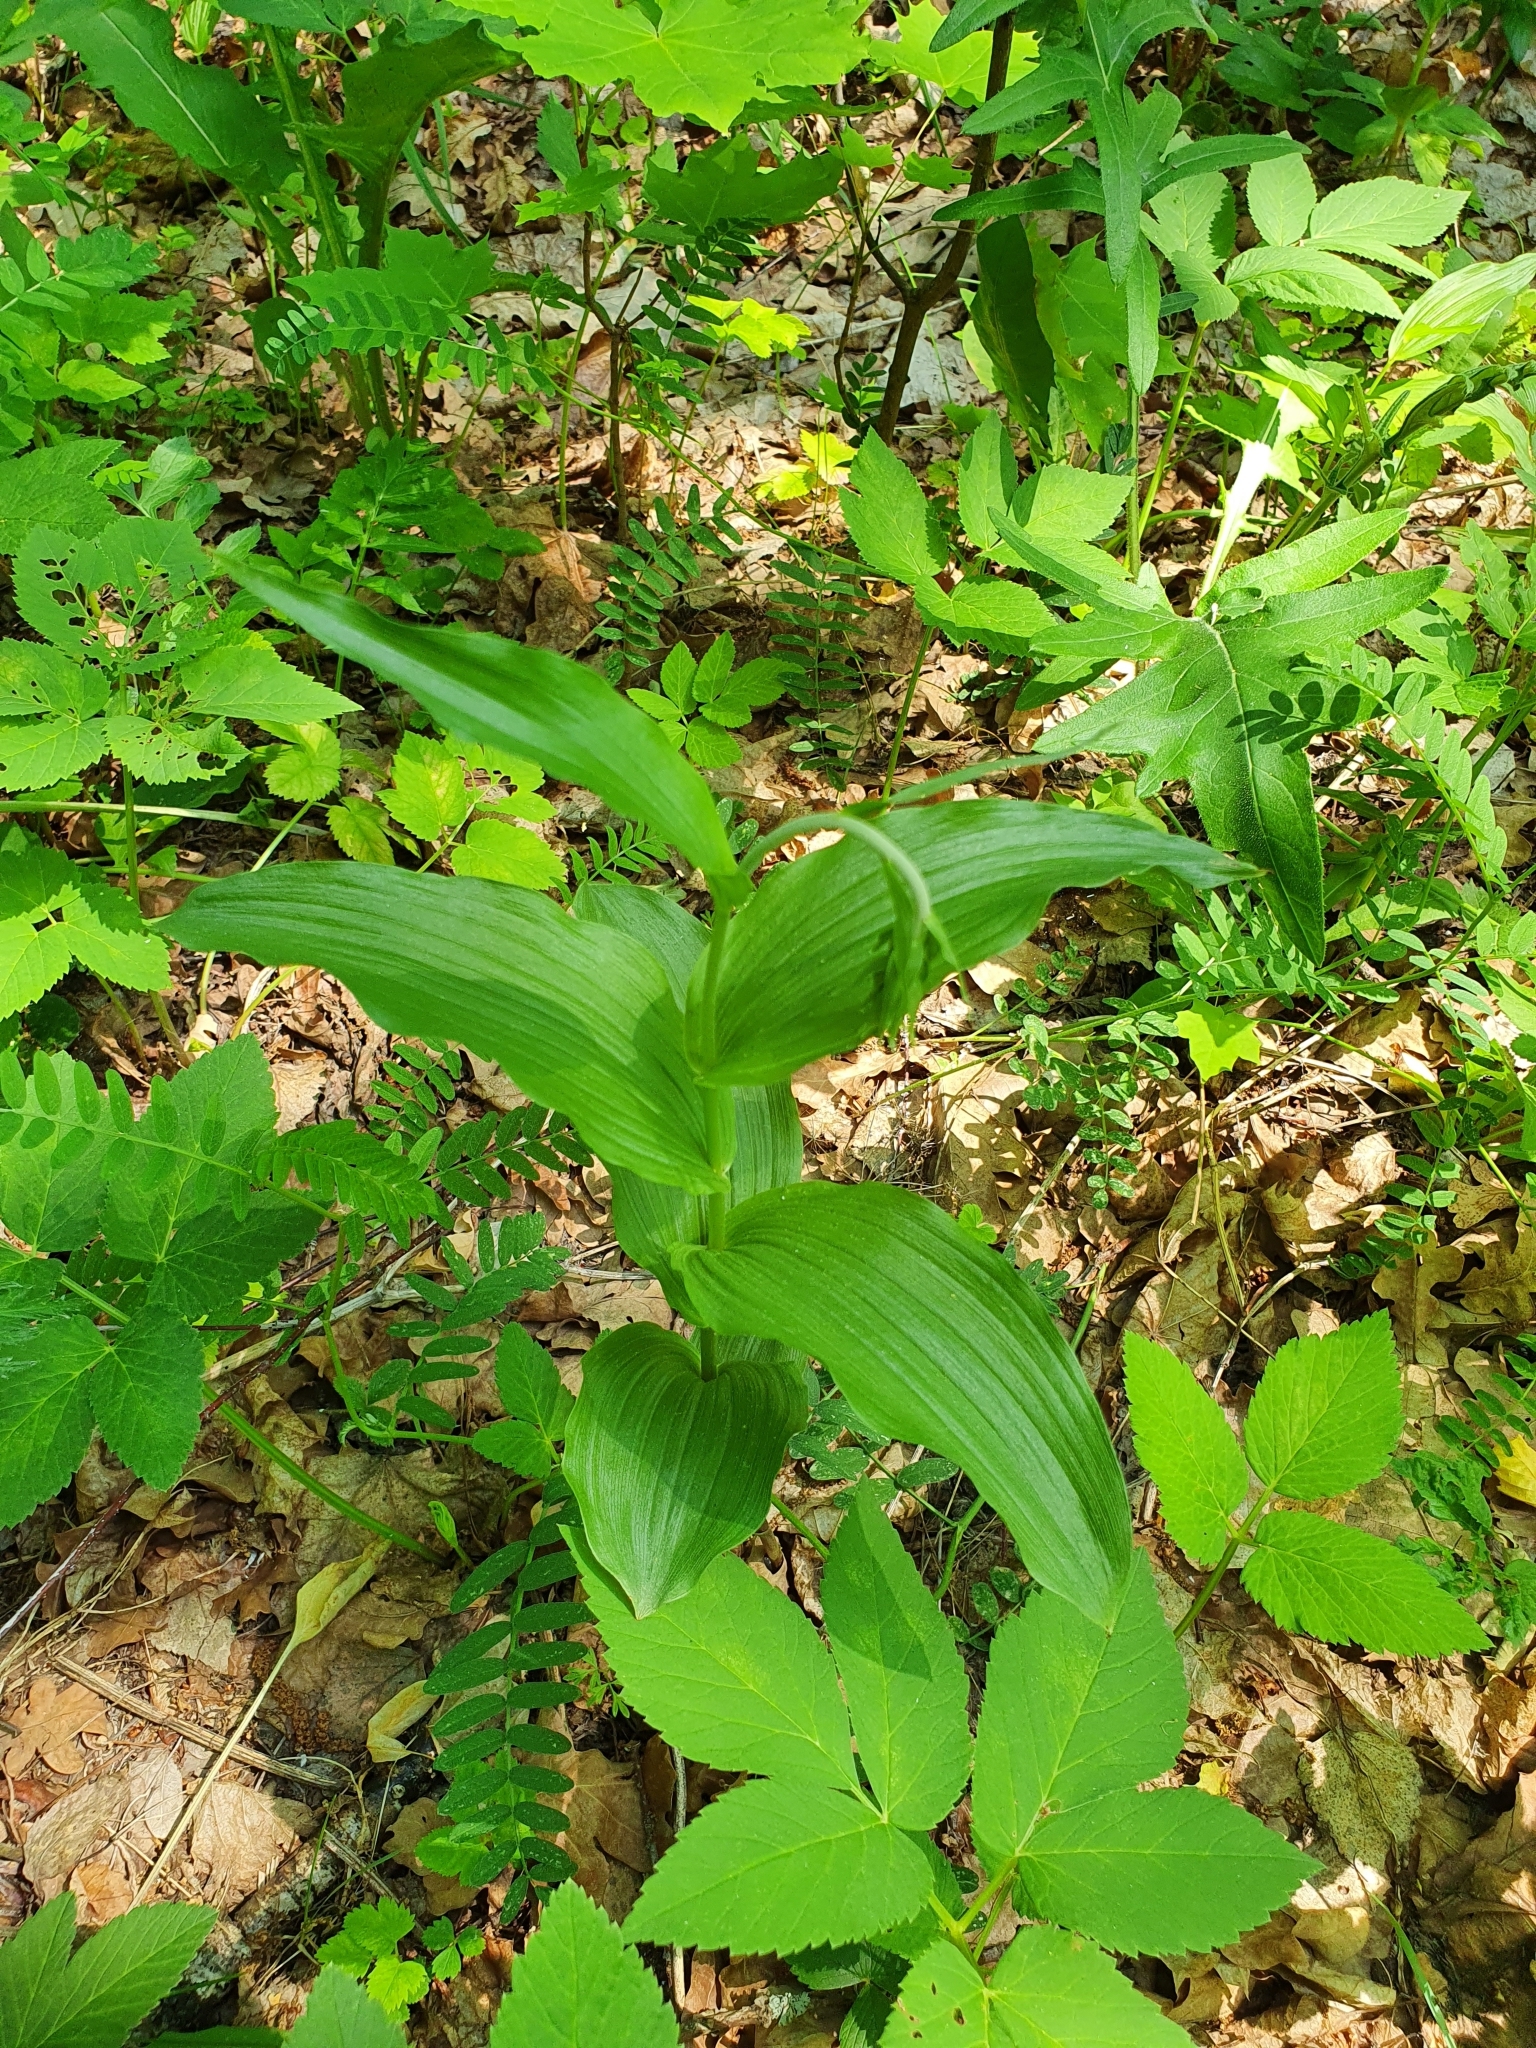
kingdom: Plantae
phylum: Tracheophyta
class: Liliopsida
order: Asparagales
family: Orchidaceae
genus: Epipactis
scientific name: Epipactis helleborine
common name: Broad-leaved helleborine
